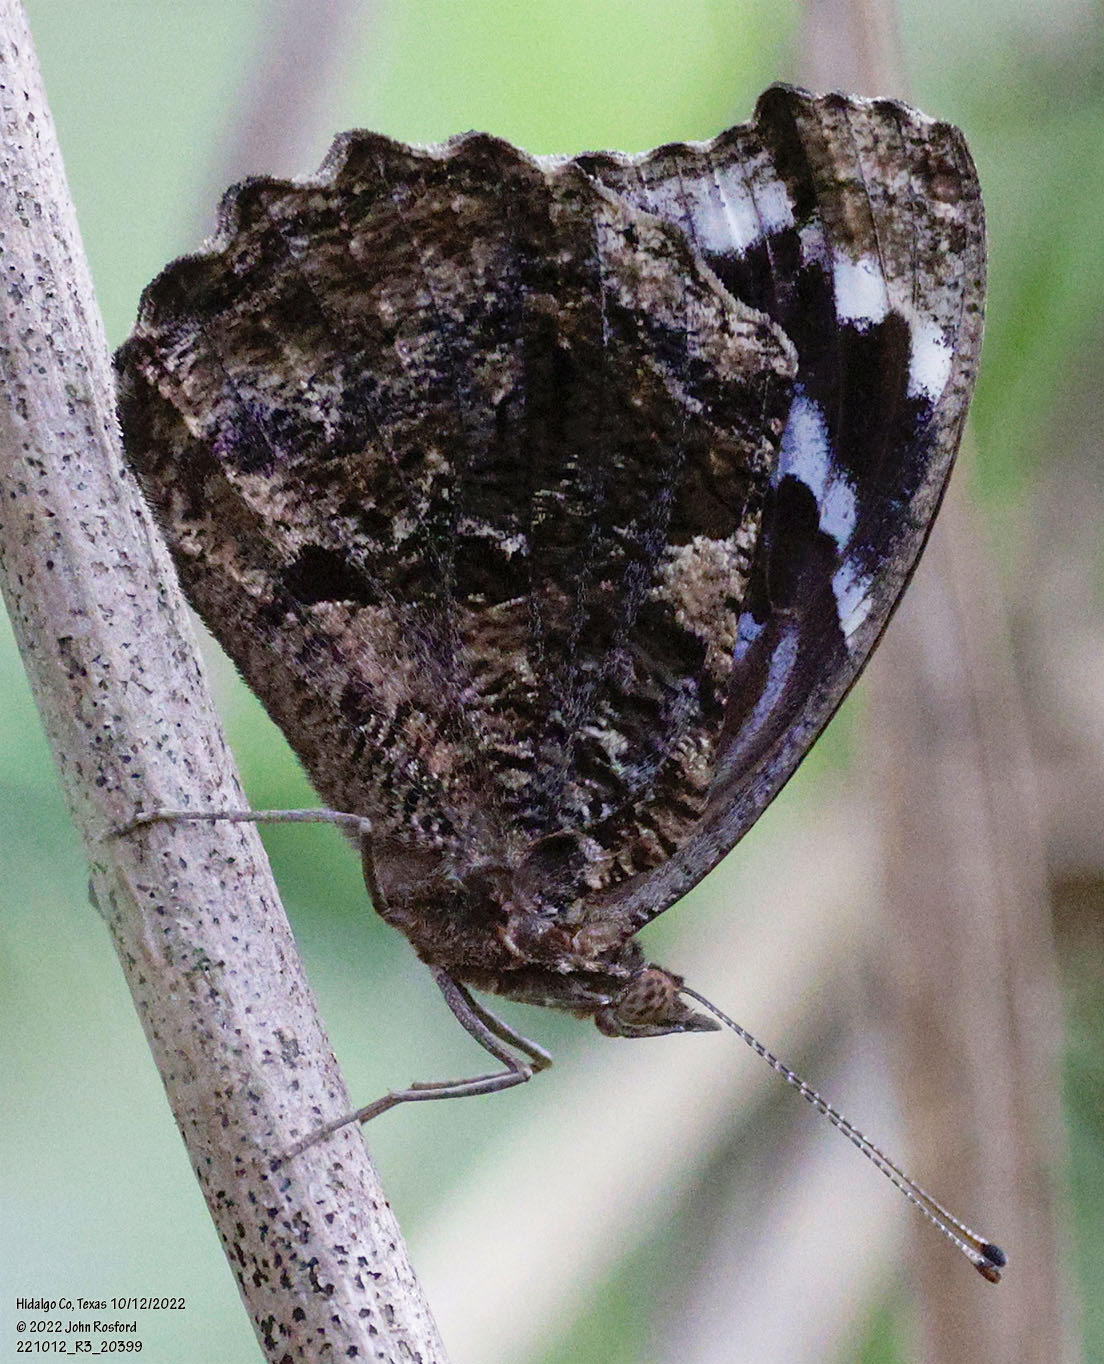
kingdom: Animalia
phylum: Arthropoda
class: Insecta
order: Lepidoptera
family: Nymphalidae
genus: Myscelia
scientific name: Myscelia ethusa
